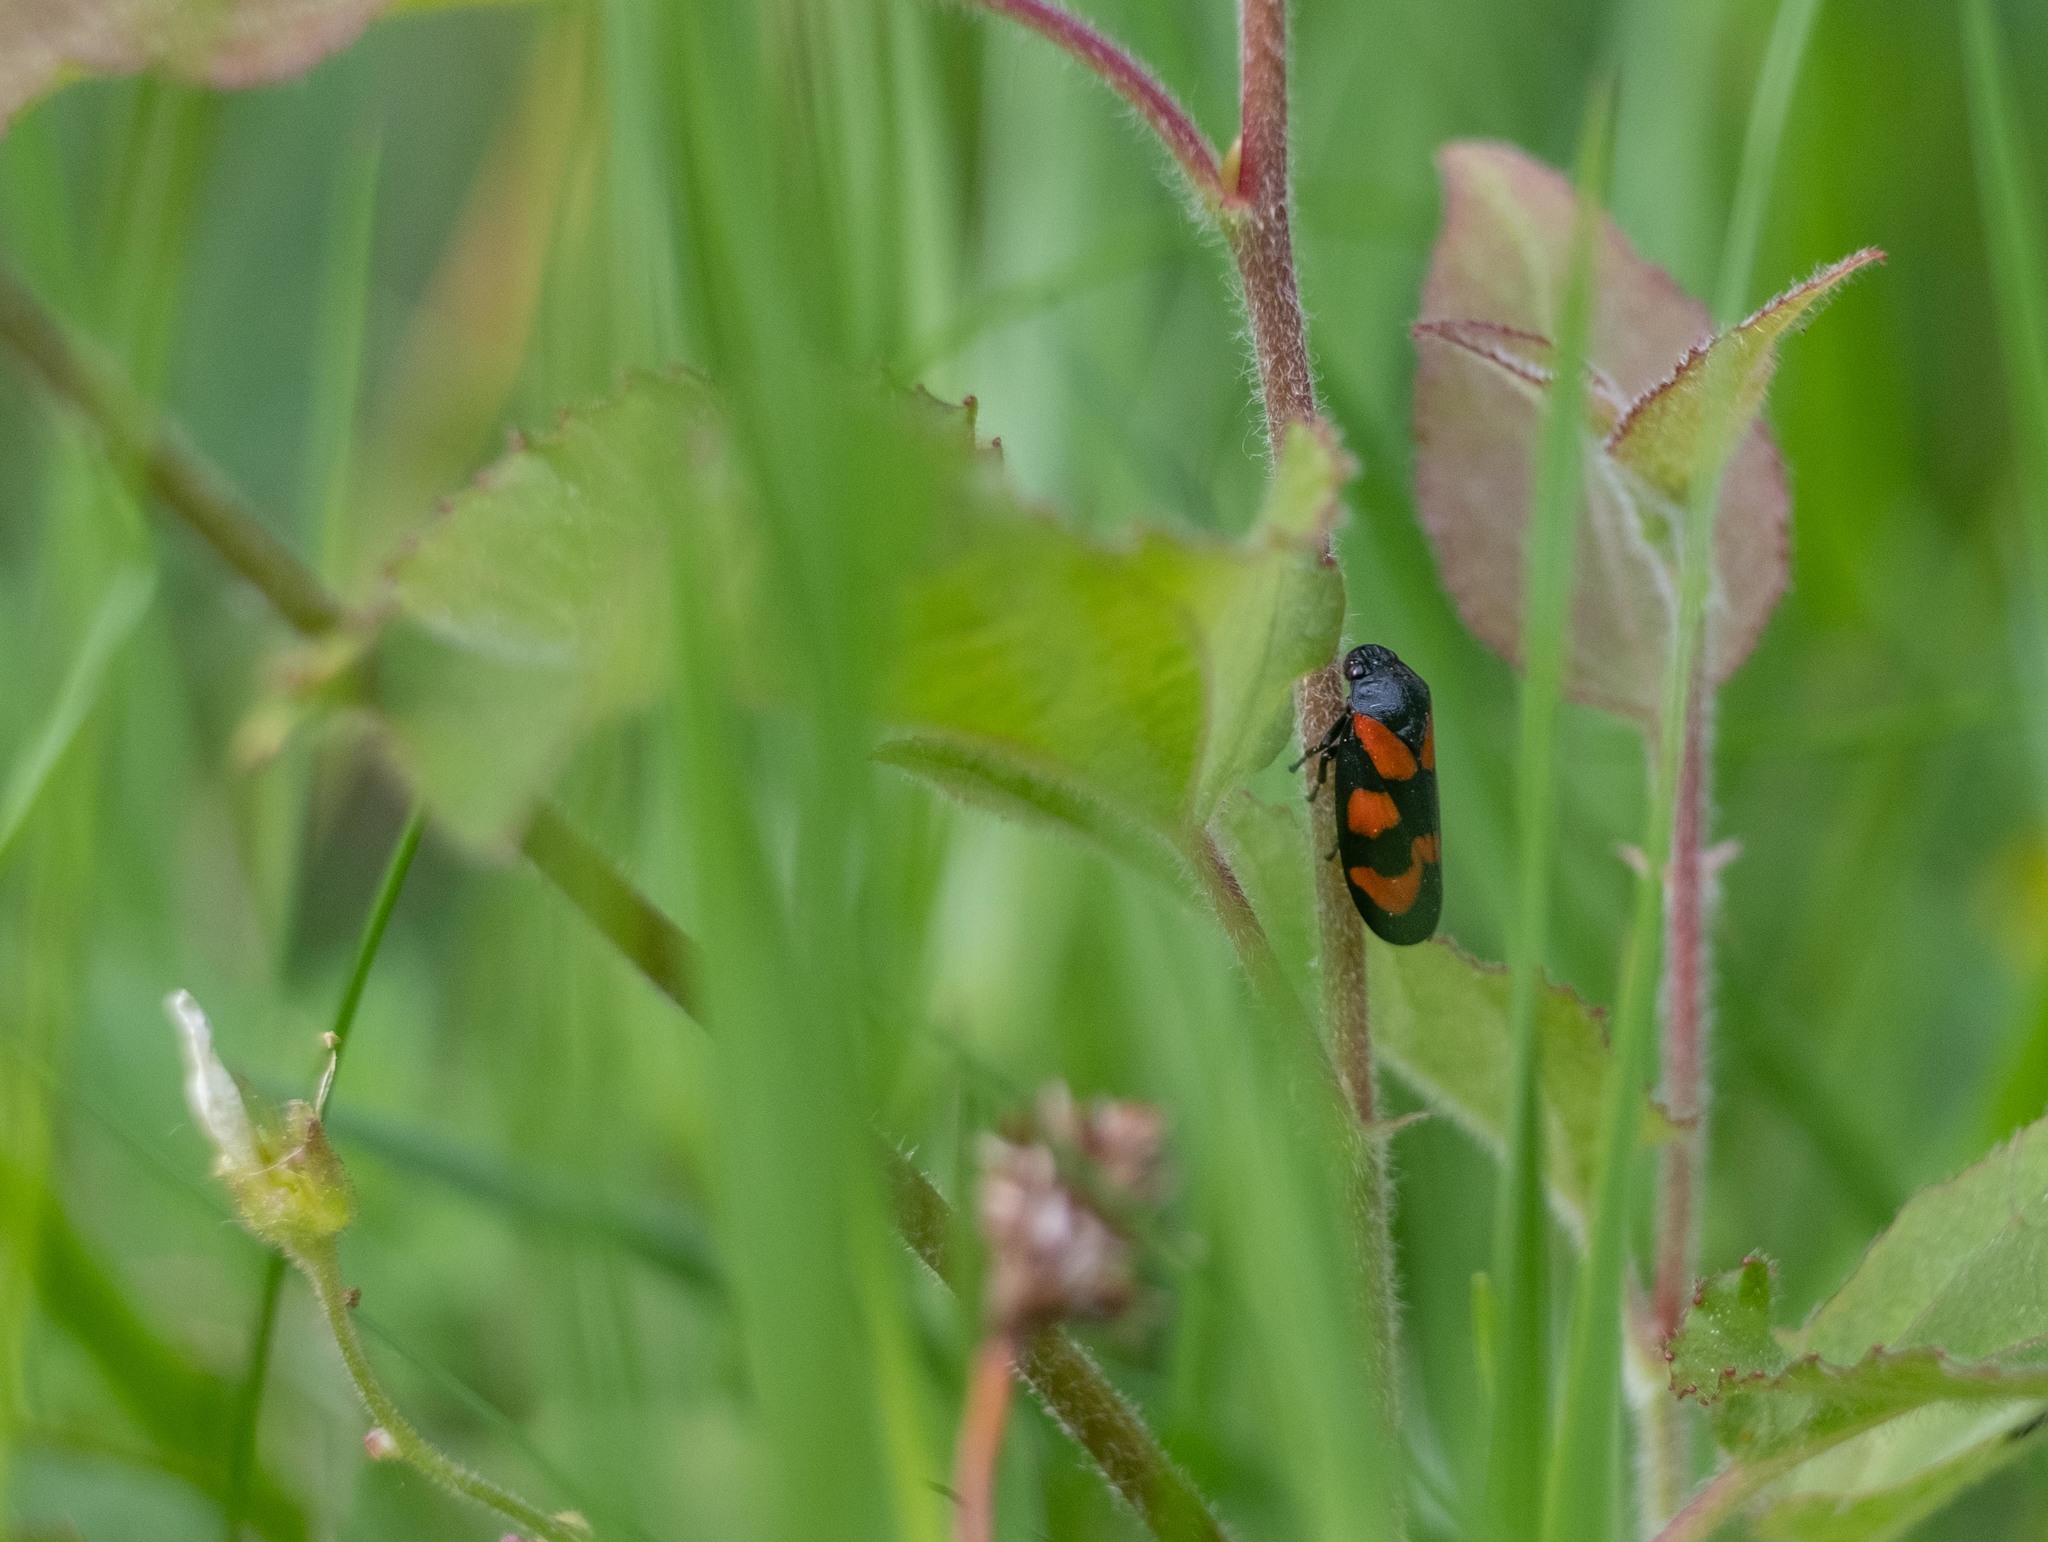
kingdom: Animalia
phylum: Arthropoda
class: Insecta
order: Hemiptera
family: Cercopidae
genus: Cercopis
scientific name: Cercopis vulnerata
